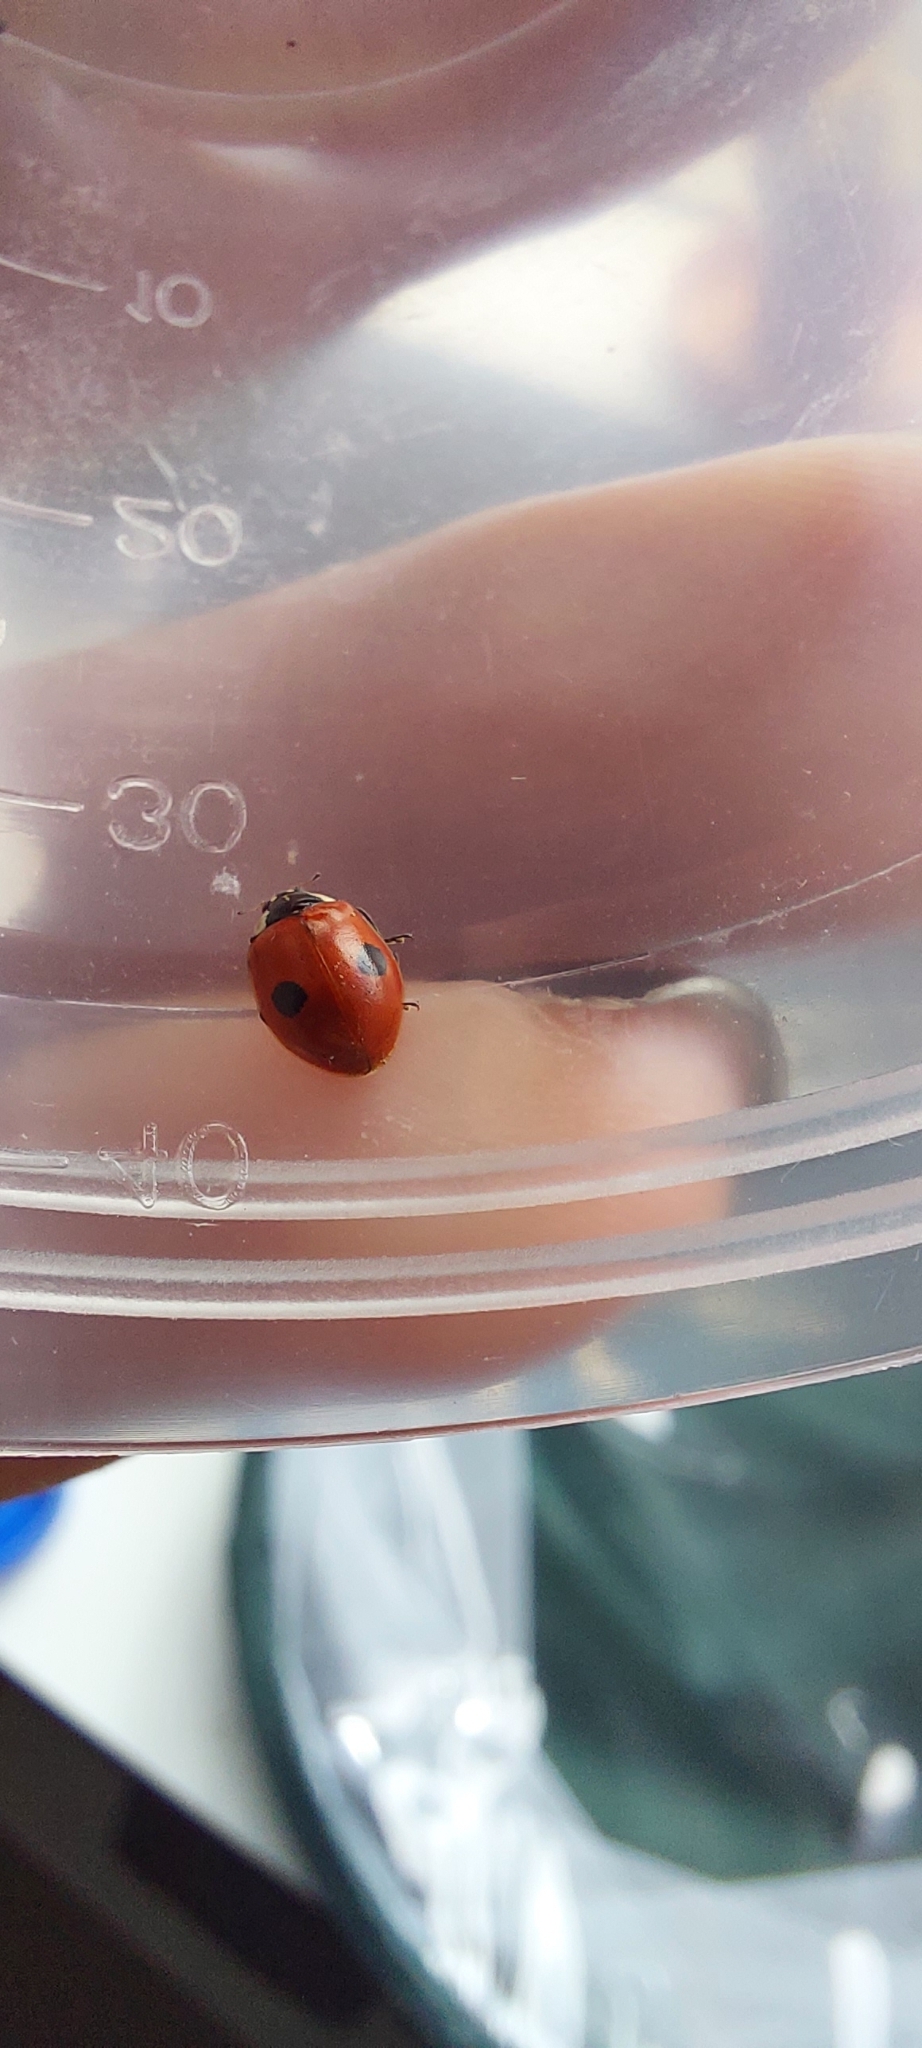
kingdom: Animalia
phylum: Arthropoda
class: Insecta
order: Coleoptera
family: Coccinellidae
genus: Adalia
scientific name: Adalia bipunctata
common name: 2-spot ladybird
